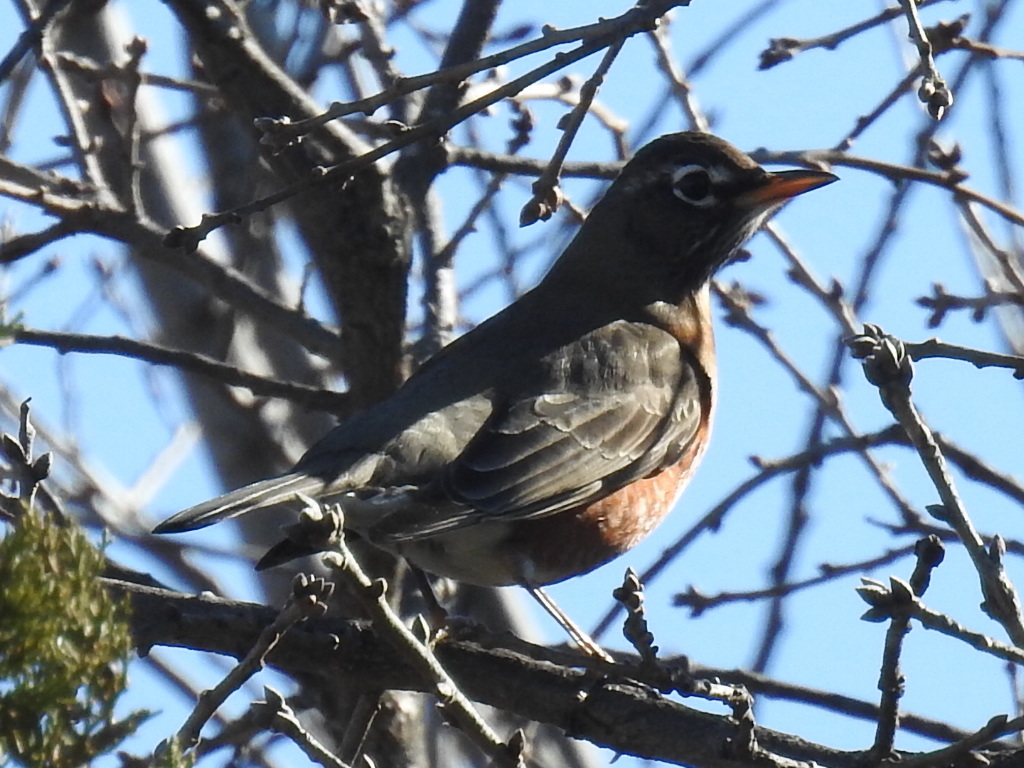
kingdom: Animalia
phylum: Chordata
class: Aves
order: Passeriformes
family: Turdidae
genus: Turdus
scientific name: Turdus migratorius
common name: American robin
